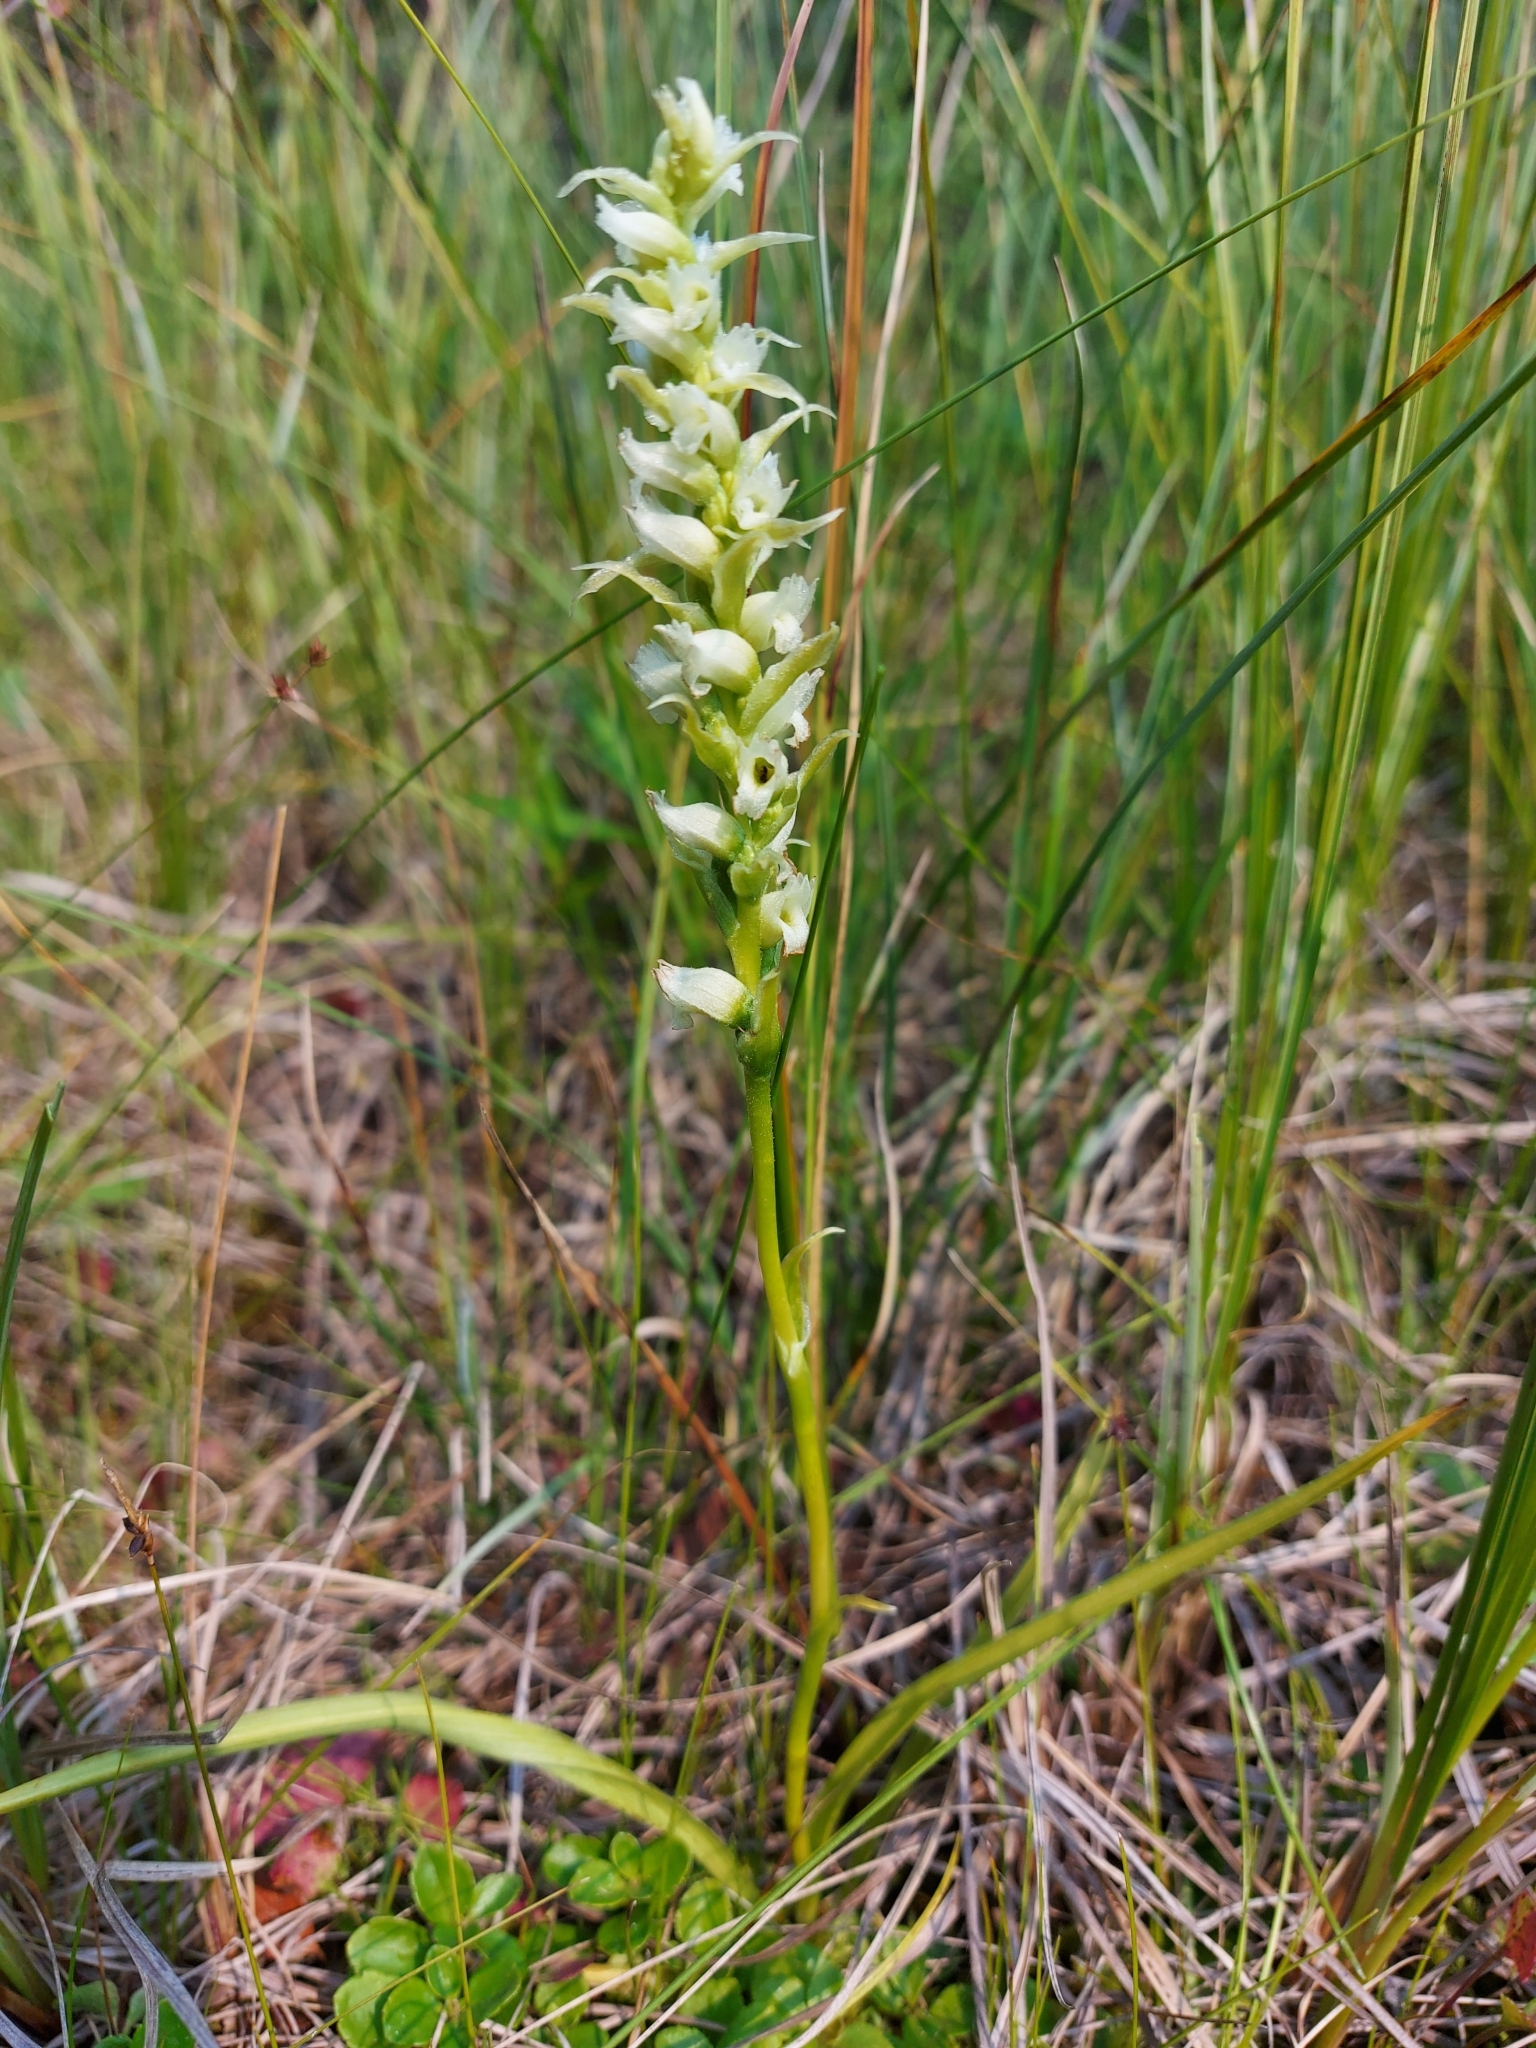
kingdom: Plantae
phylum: Tracheophyta
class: Liliopsida
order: Asparagales
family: Orchidaceae
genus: Spiranthes
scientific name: Spiranthes romanzoffiana
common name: Irish lady's-tresses
